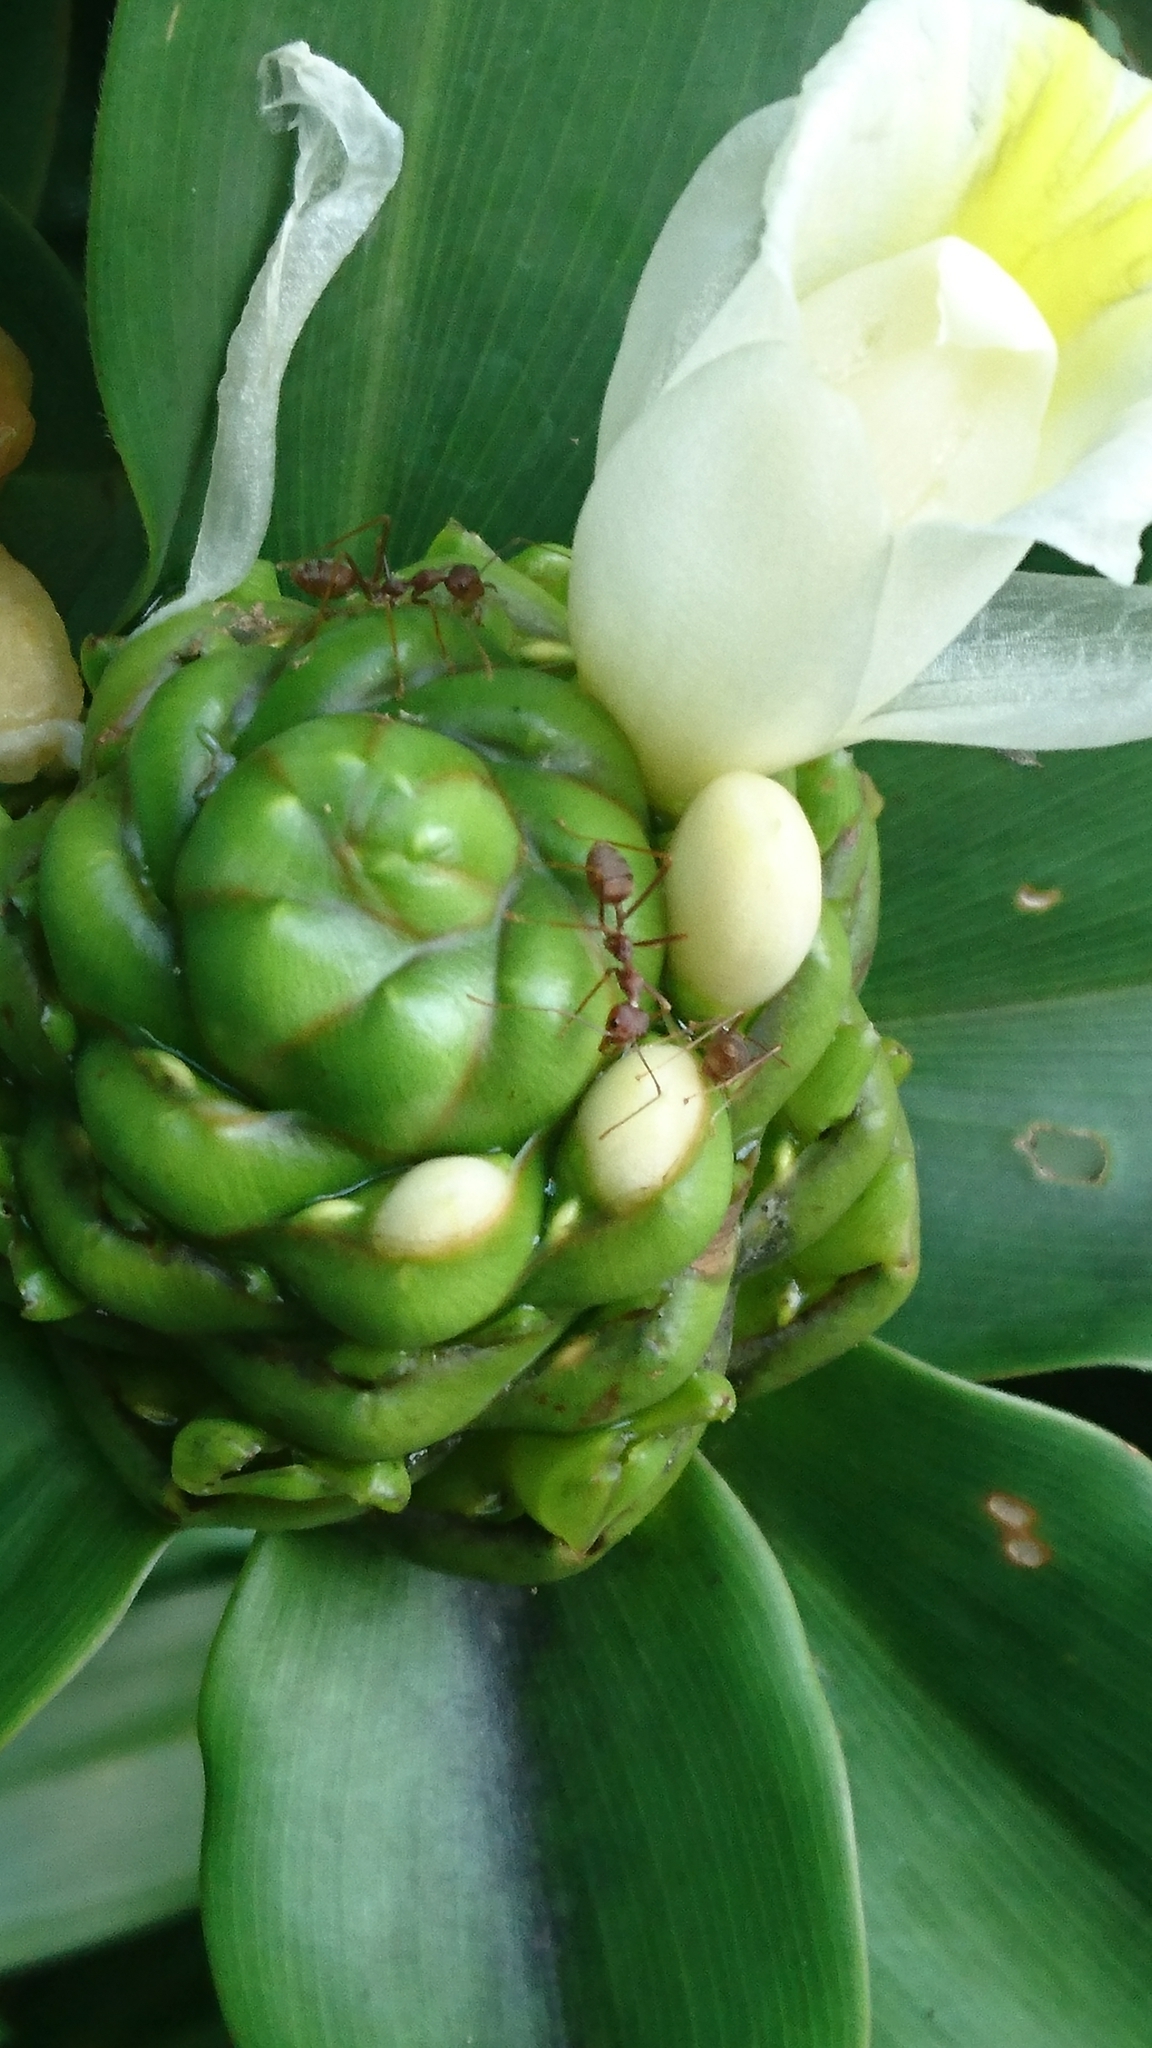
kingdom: Animalia
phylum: Arthropoda
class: Insecta
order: Hymenoptera
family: Formicidae
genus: Oecophylla
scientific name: Oecophylla smaragdina
